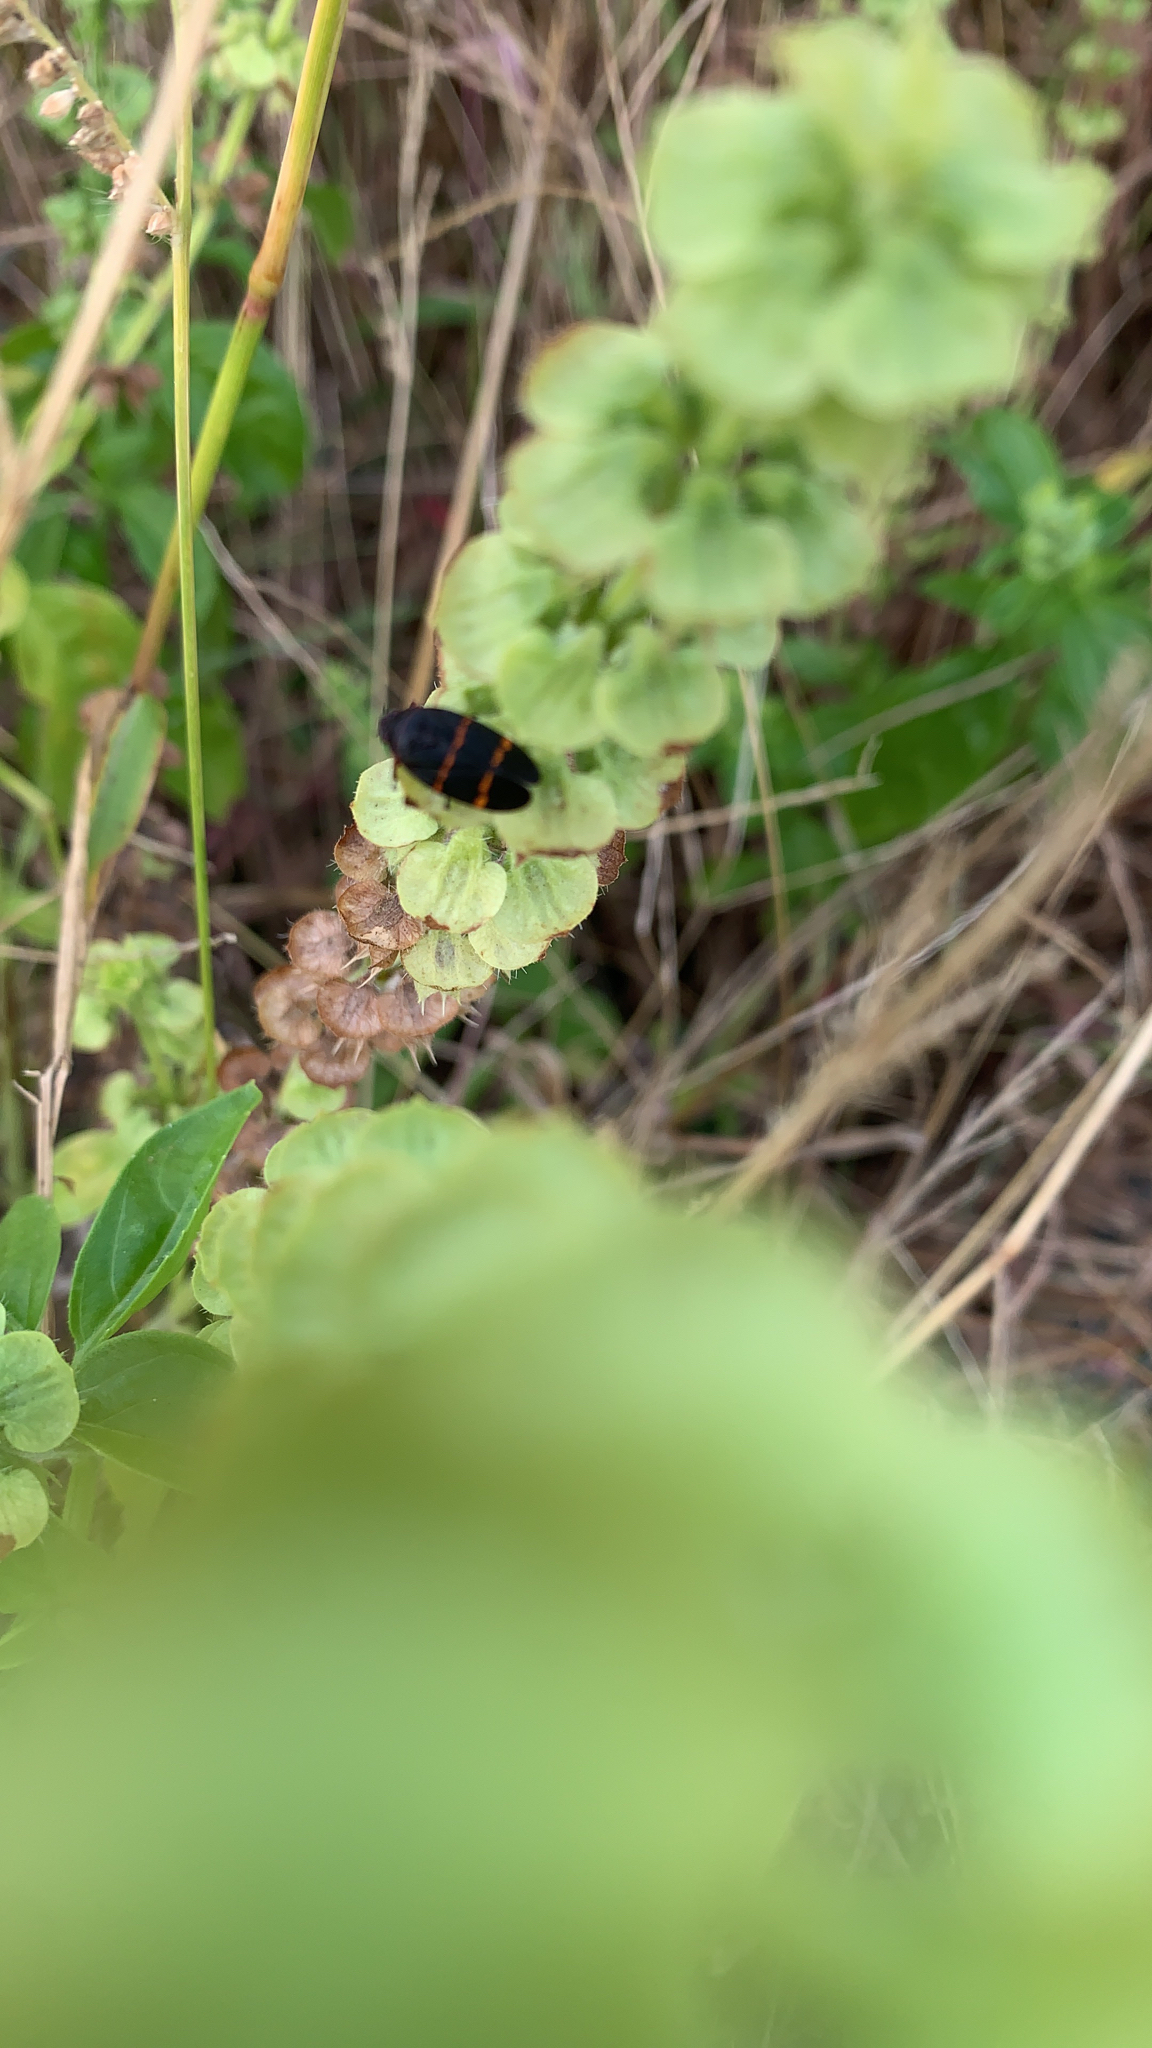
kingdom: Animalia
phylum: Arthropoda
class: Insecta
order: Hemiptera
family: Cercopidae
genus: Prosapia
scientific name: Prosapia bicincta
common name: Twolined spittlebug
